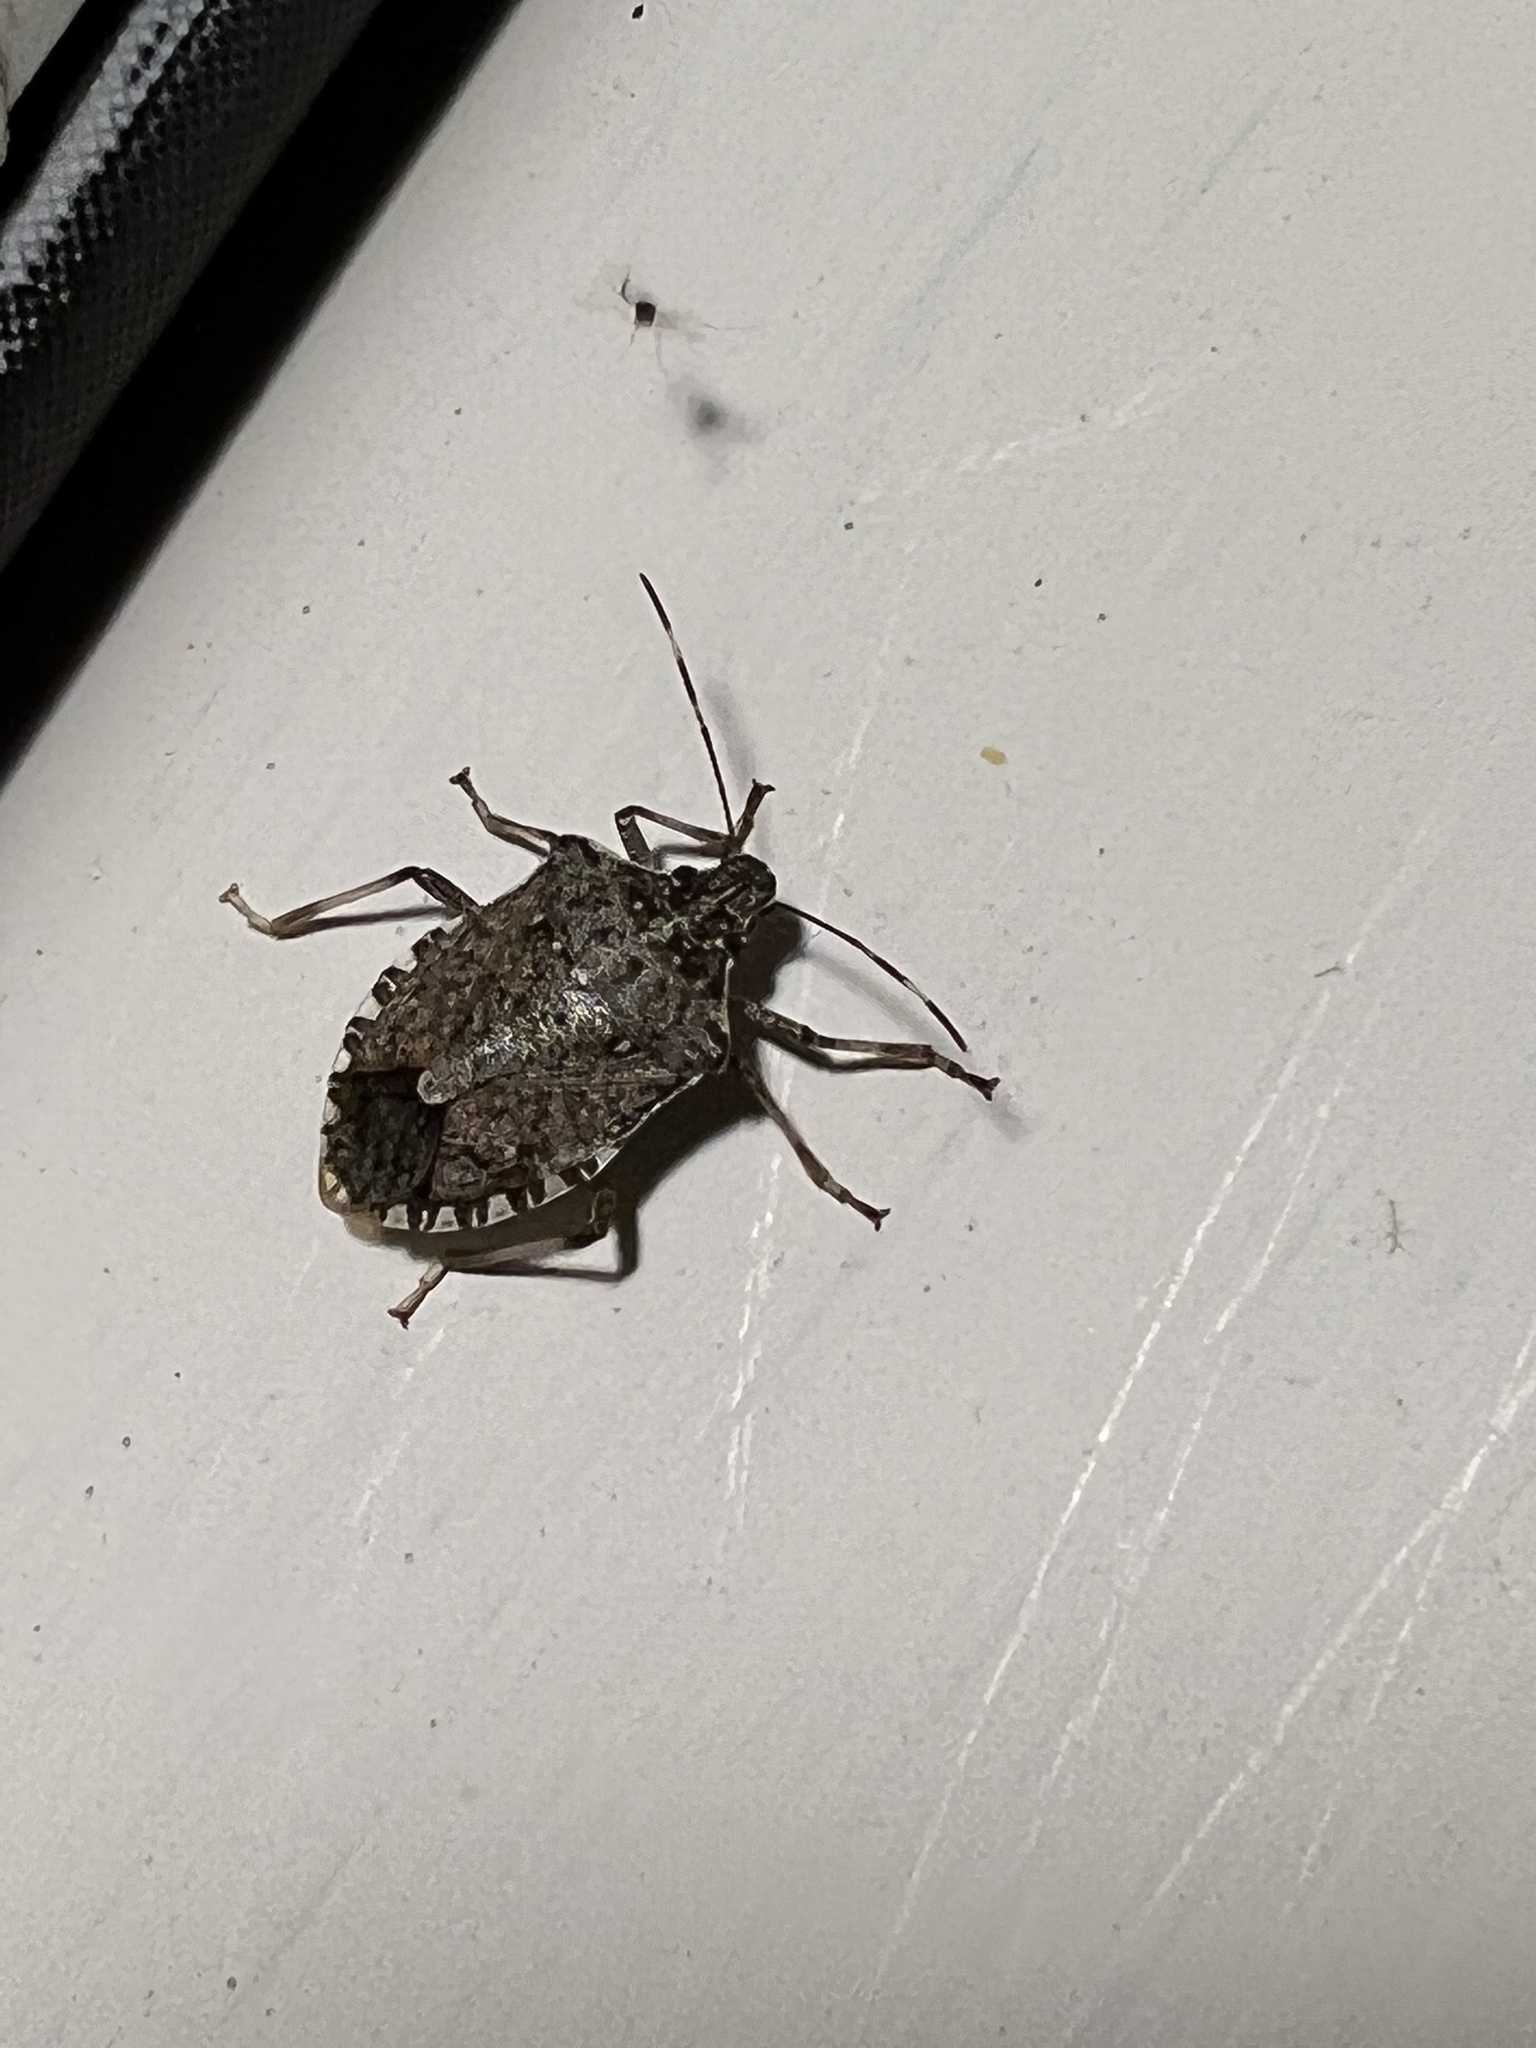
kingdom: Animalia
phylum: Arthropoda
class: Insecta
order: Hemiptera
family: Pentatomidae
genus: Halyomorpha
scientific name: Halyomorpha halys
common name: Brown marmorated stink bug
